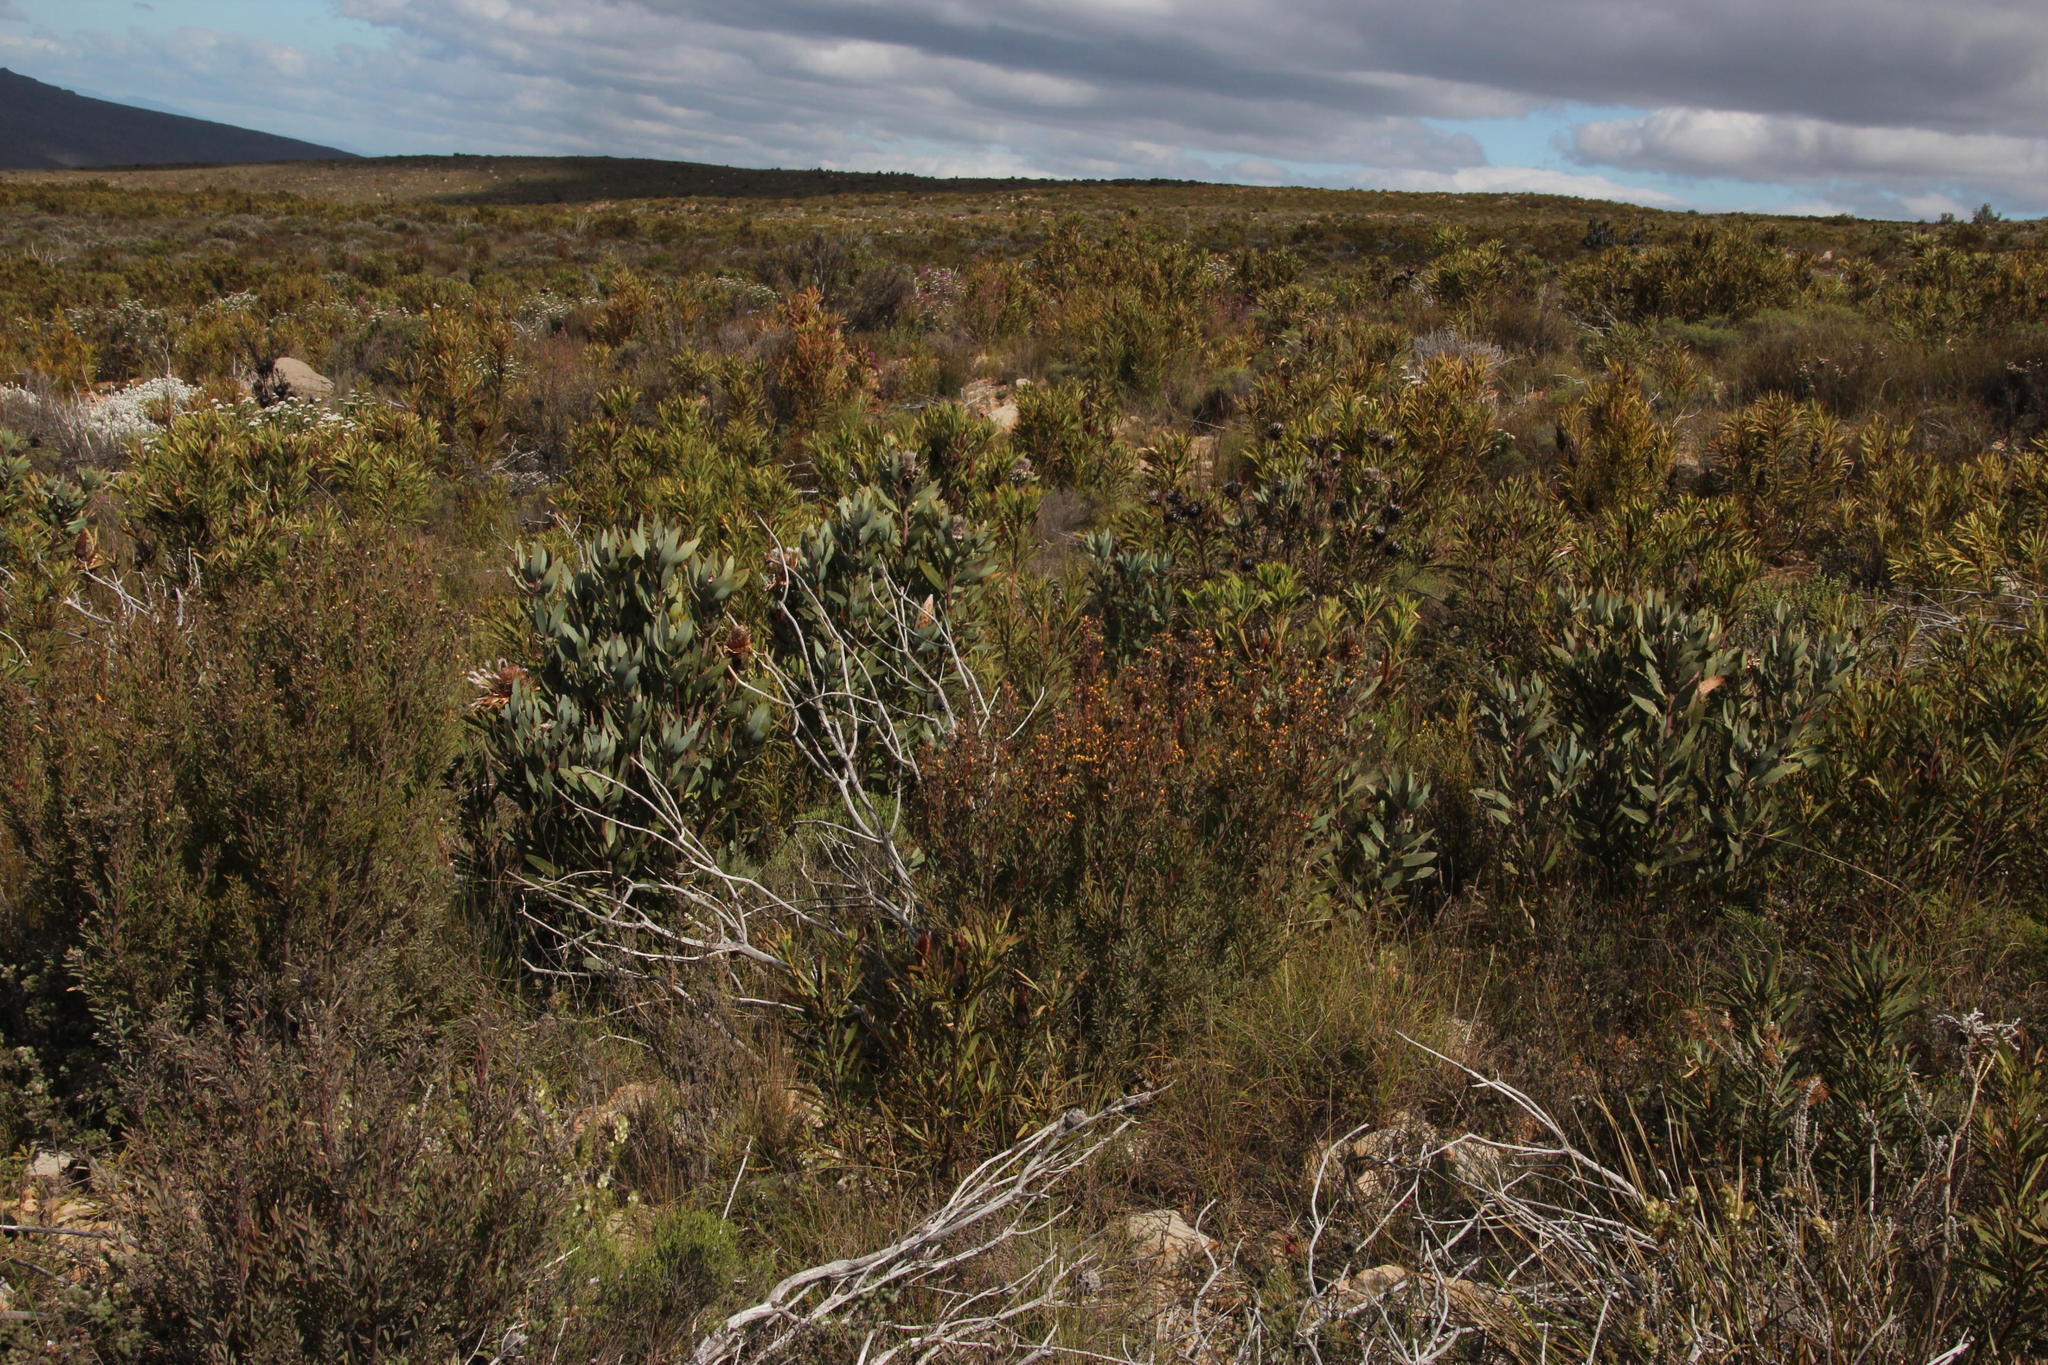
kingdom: Plantae
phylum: Tracheophyta
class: Magnoliopsida
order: Proteales
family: Proteaceae
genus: Protea
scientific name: Protea laurifolia
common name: Grey-leaf sugarbsh
